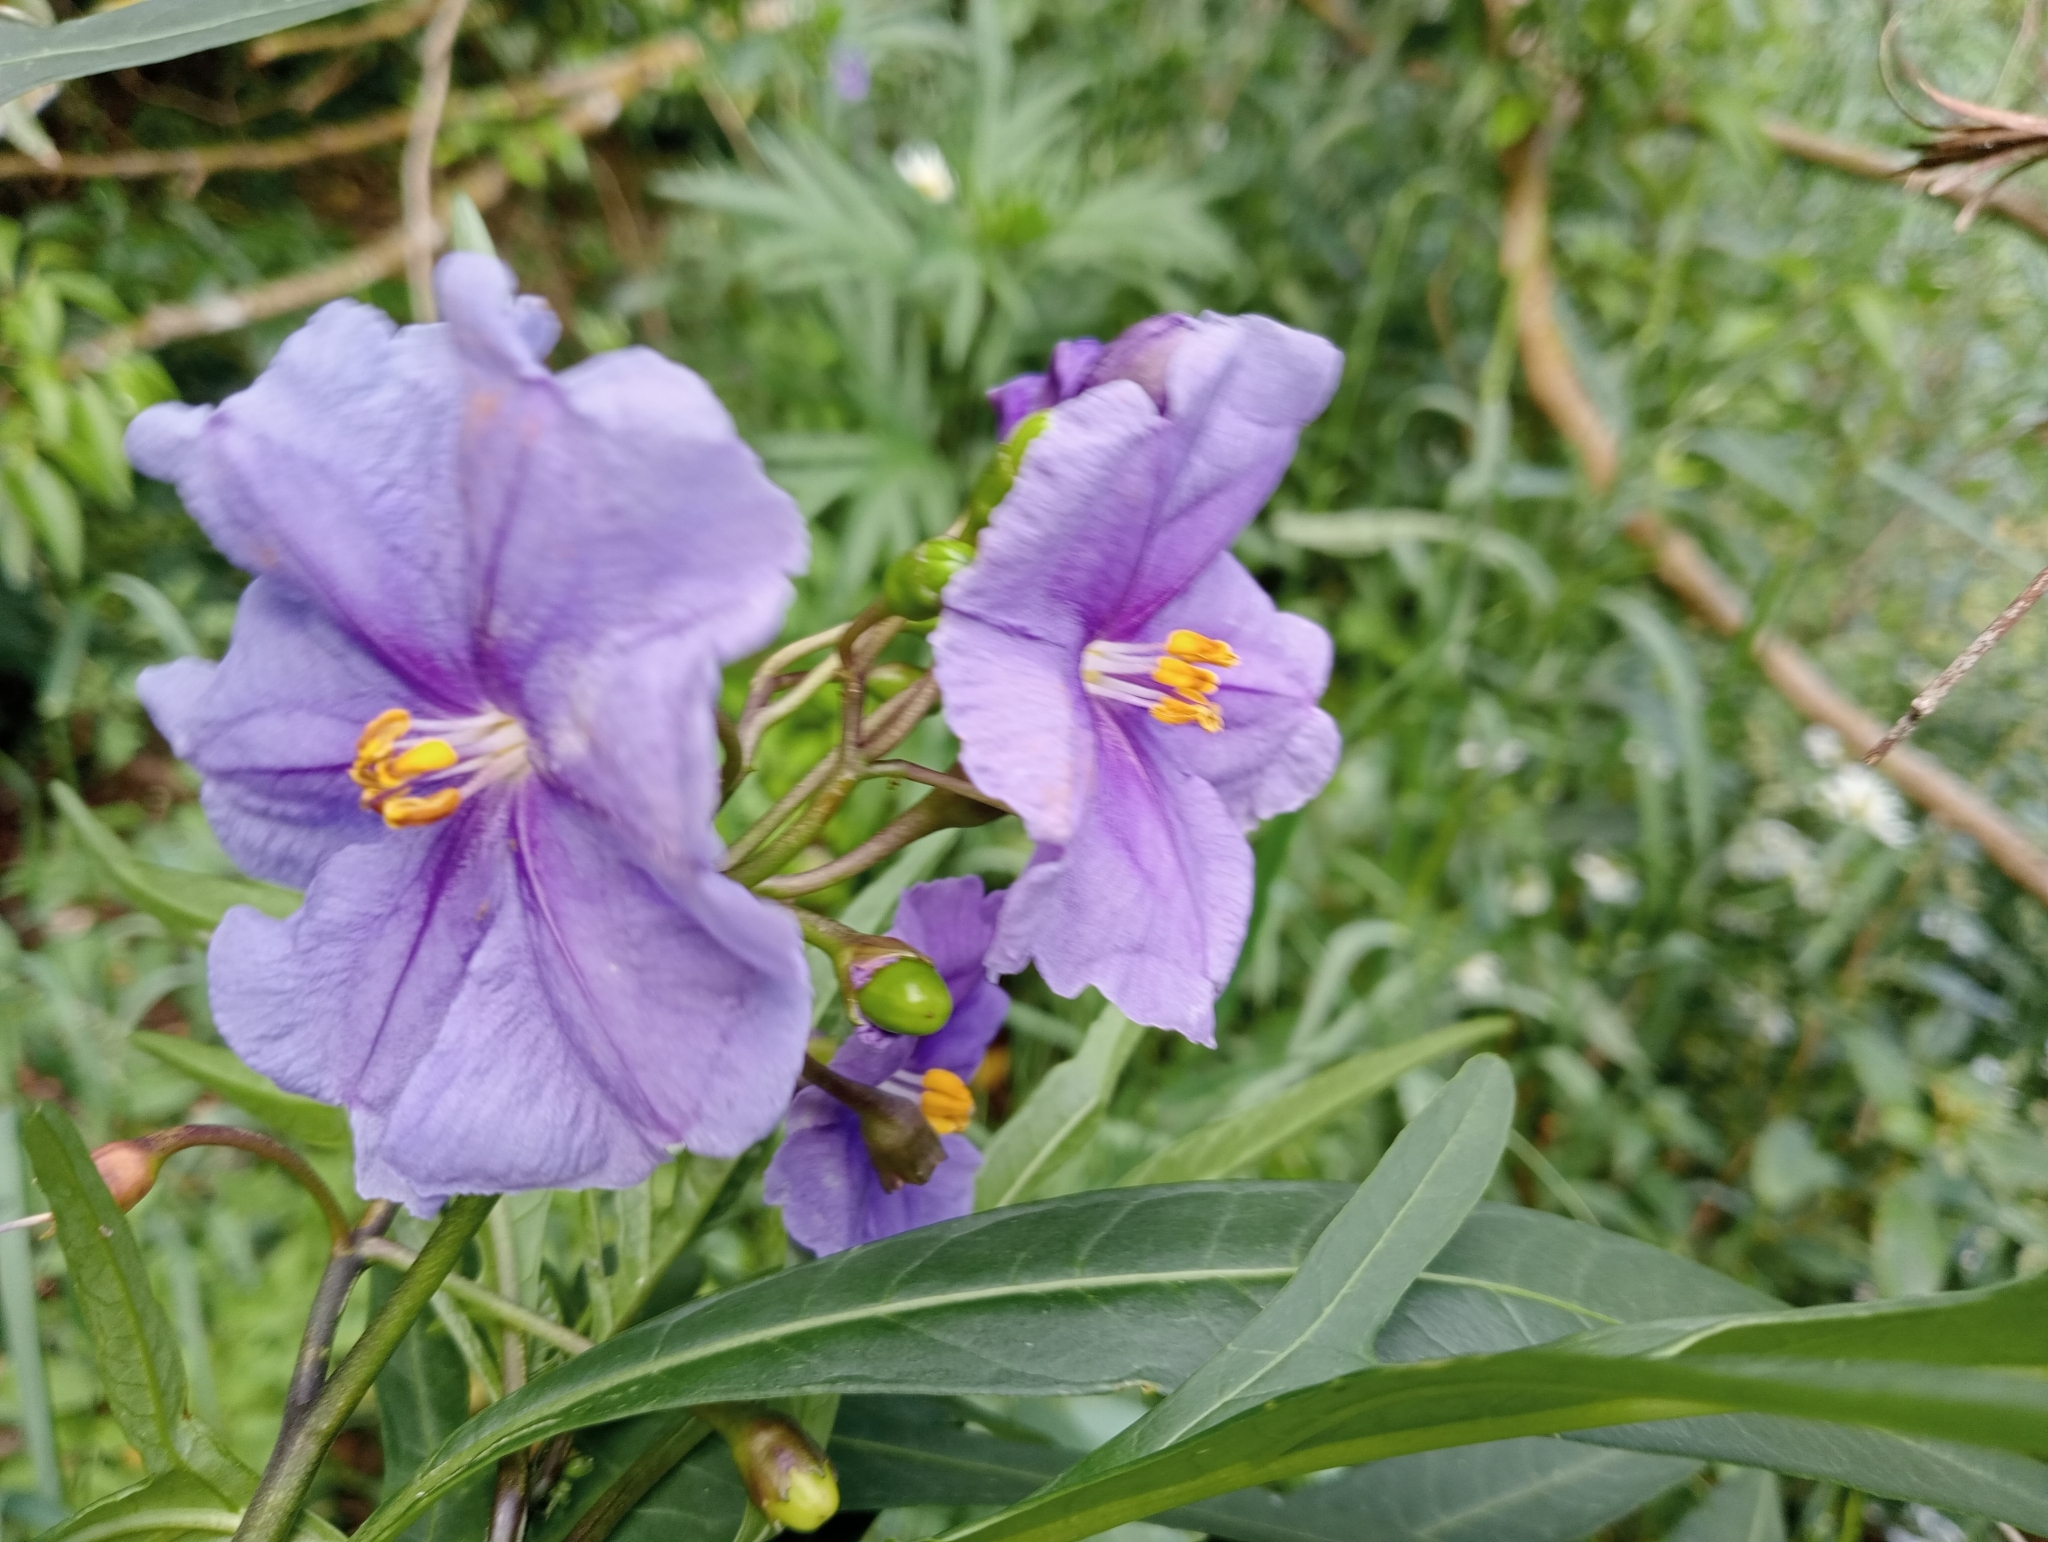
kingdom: Plantae
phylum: Tracheophyta
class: Magnoliopsida
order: Solanales
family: Solanaceae
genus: Solanum
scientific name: Solanum laciniatum
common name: Kangaroo-apple
